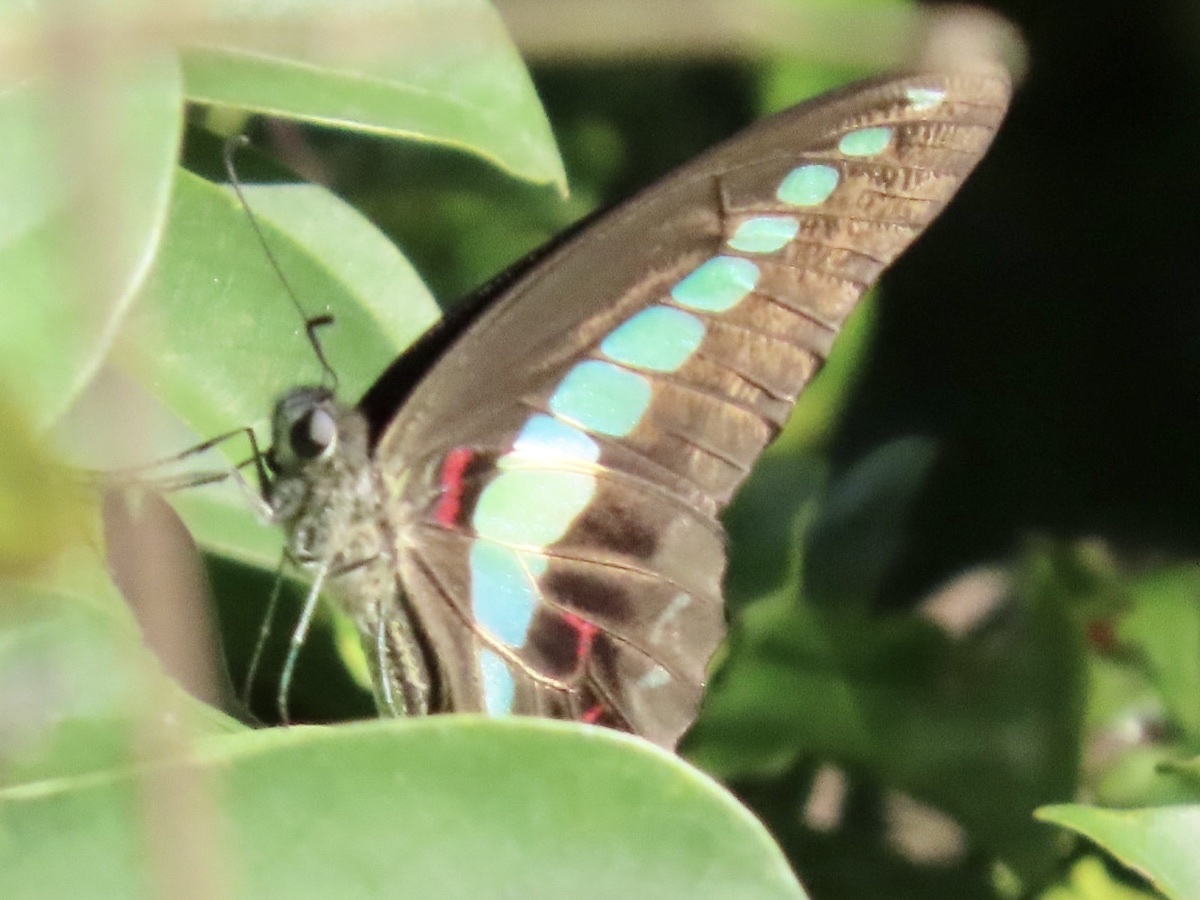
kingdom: Fungi
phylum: Ascomycota
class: Sordariomycetes
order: Microascales
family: Microascaceae
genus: Graphium
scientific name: Graphium sarpedon
